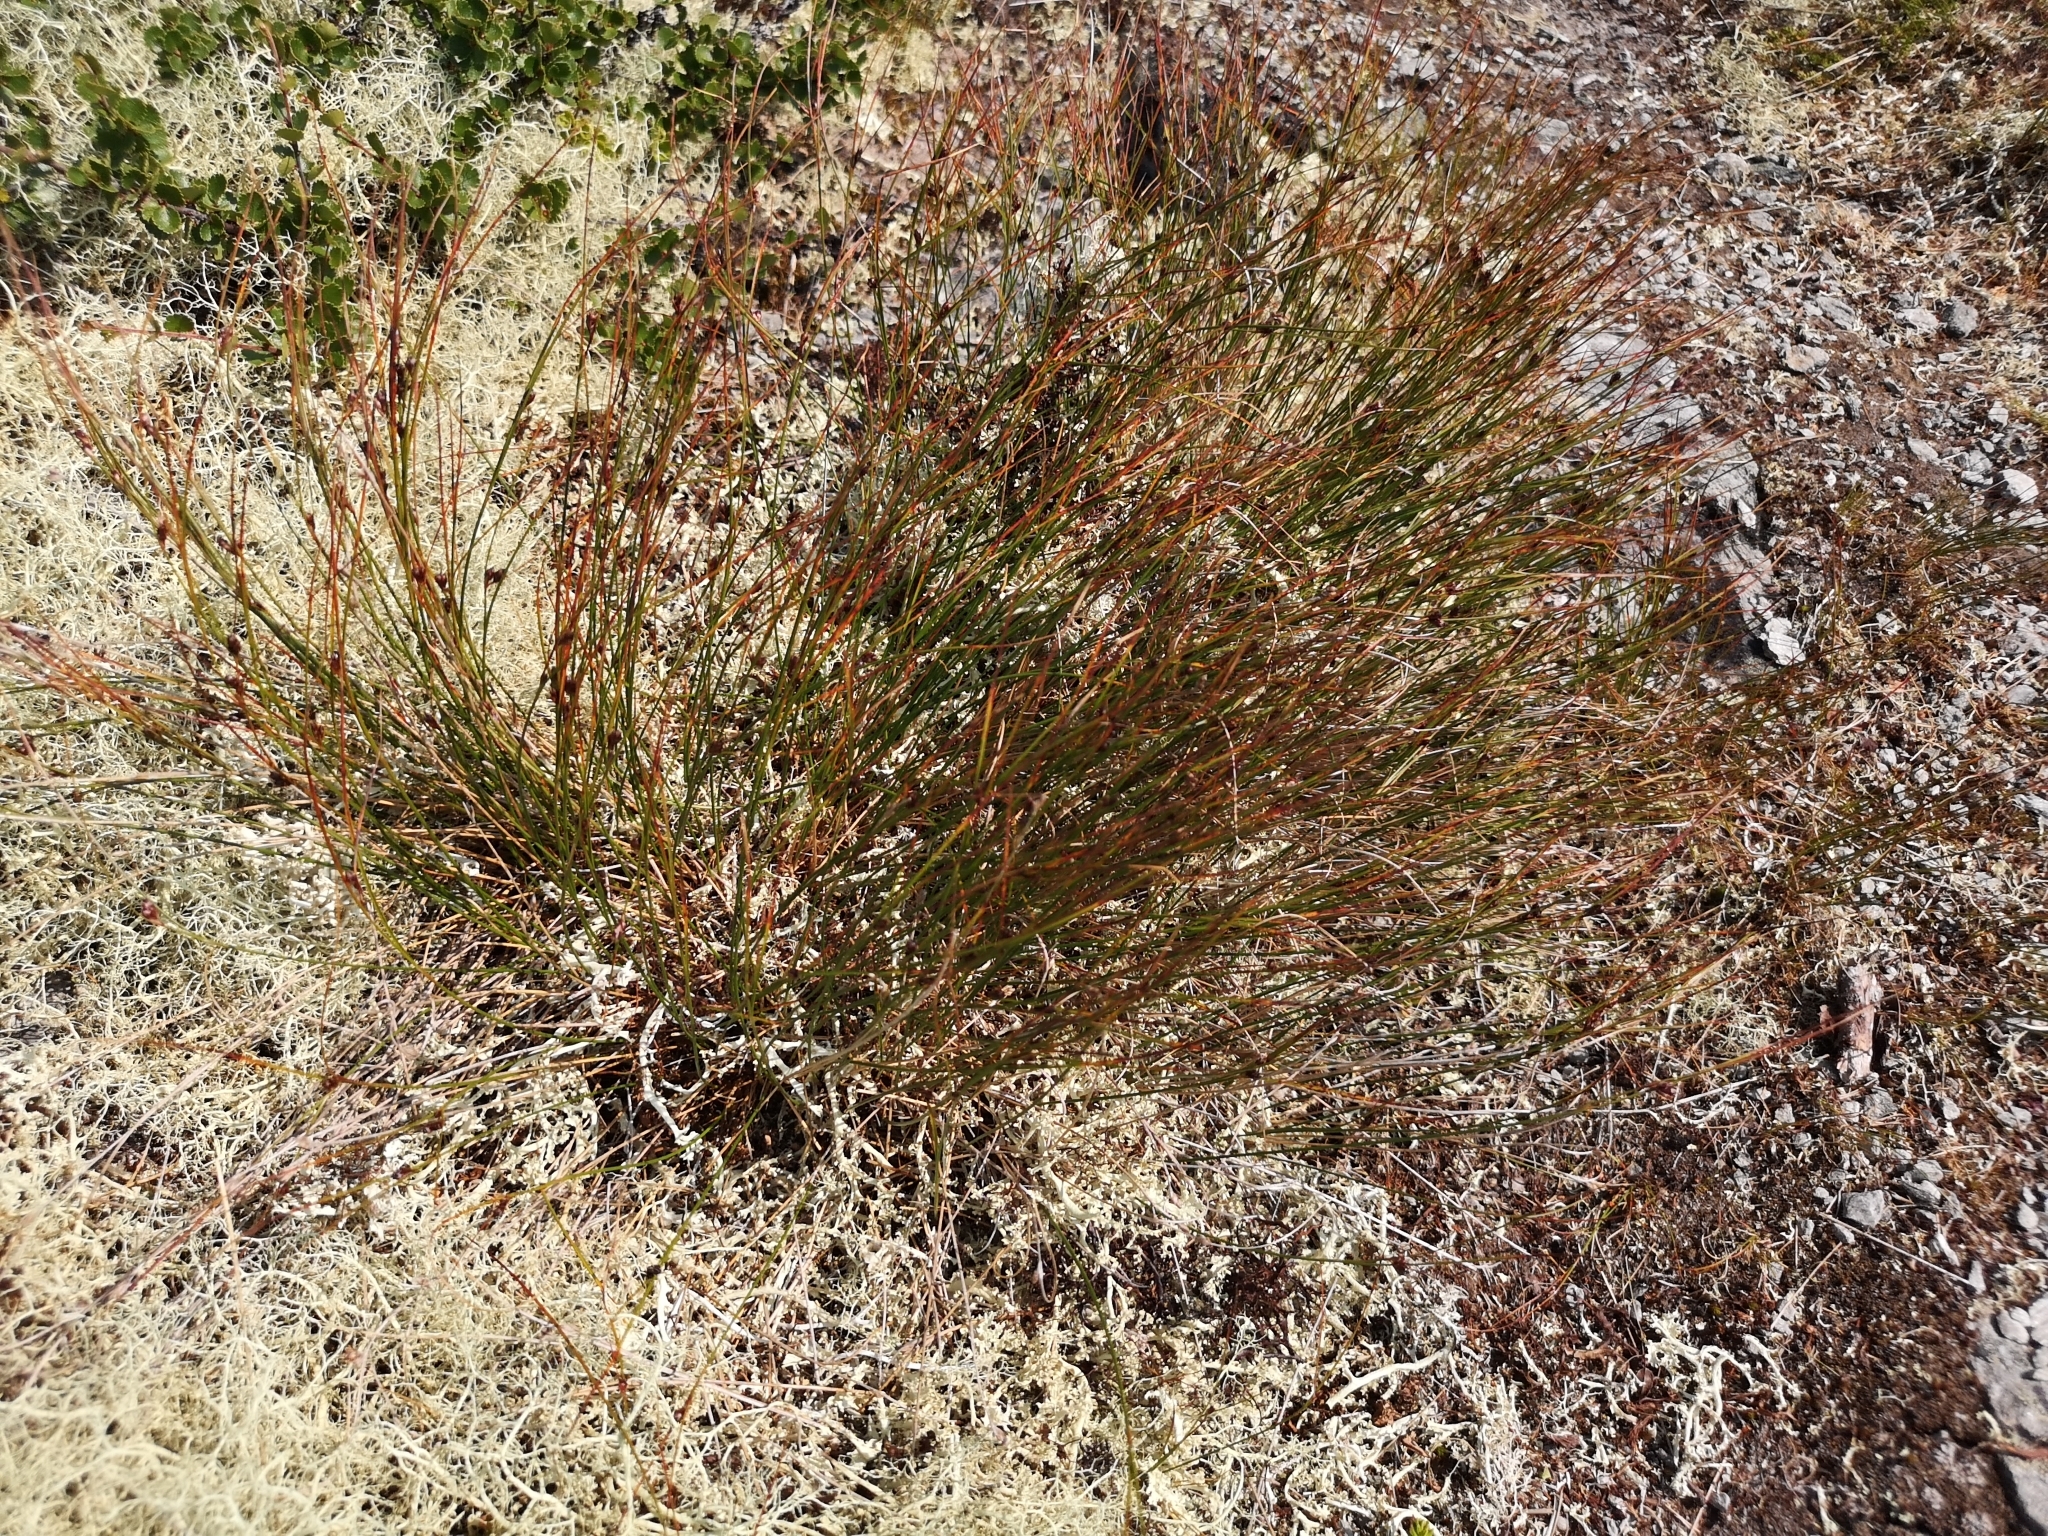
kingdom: Plantae
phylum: Tracheophyta
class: Liliopsida
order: Poales
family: Juncaceae
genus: Oreojuncus
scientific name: Oreojuncus trifidus
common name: Highland rush
